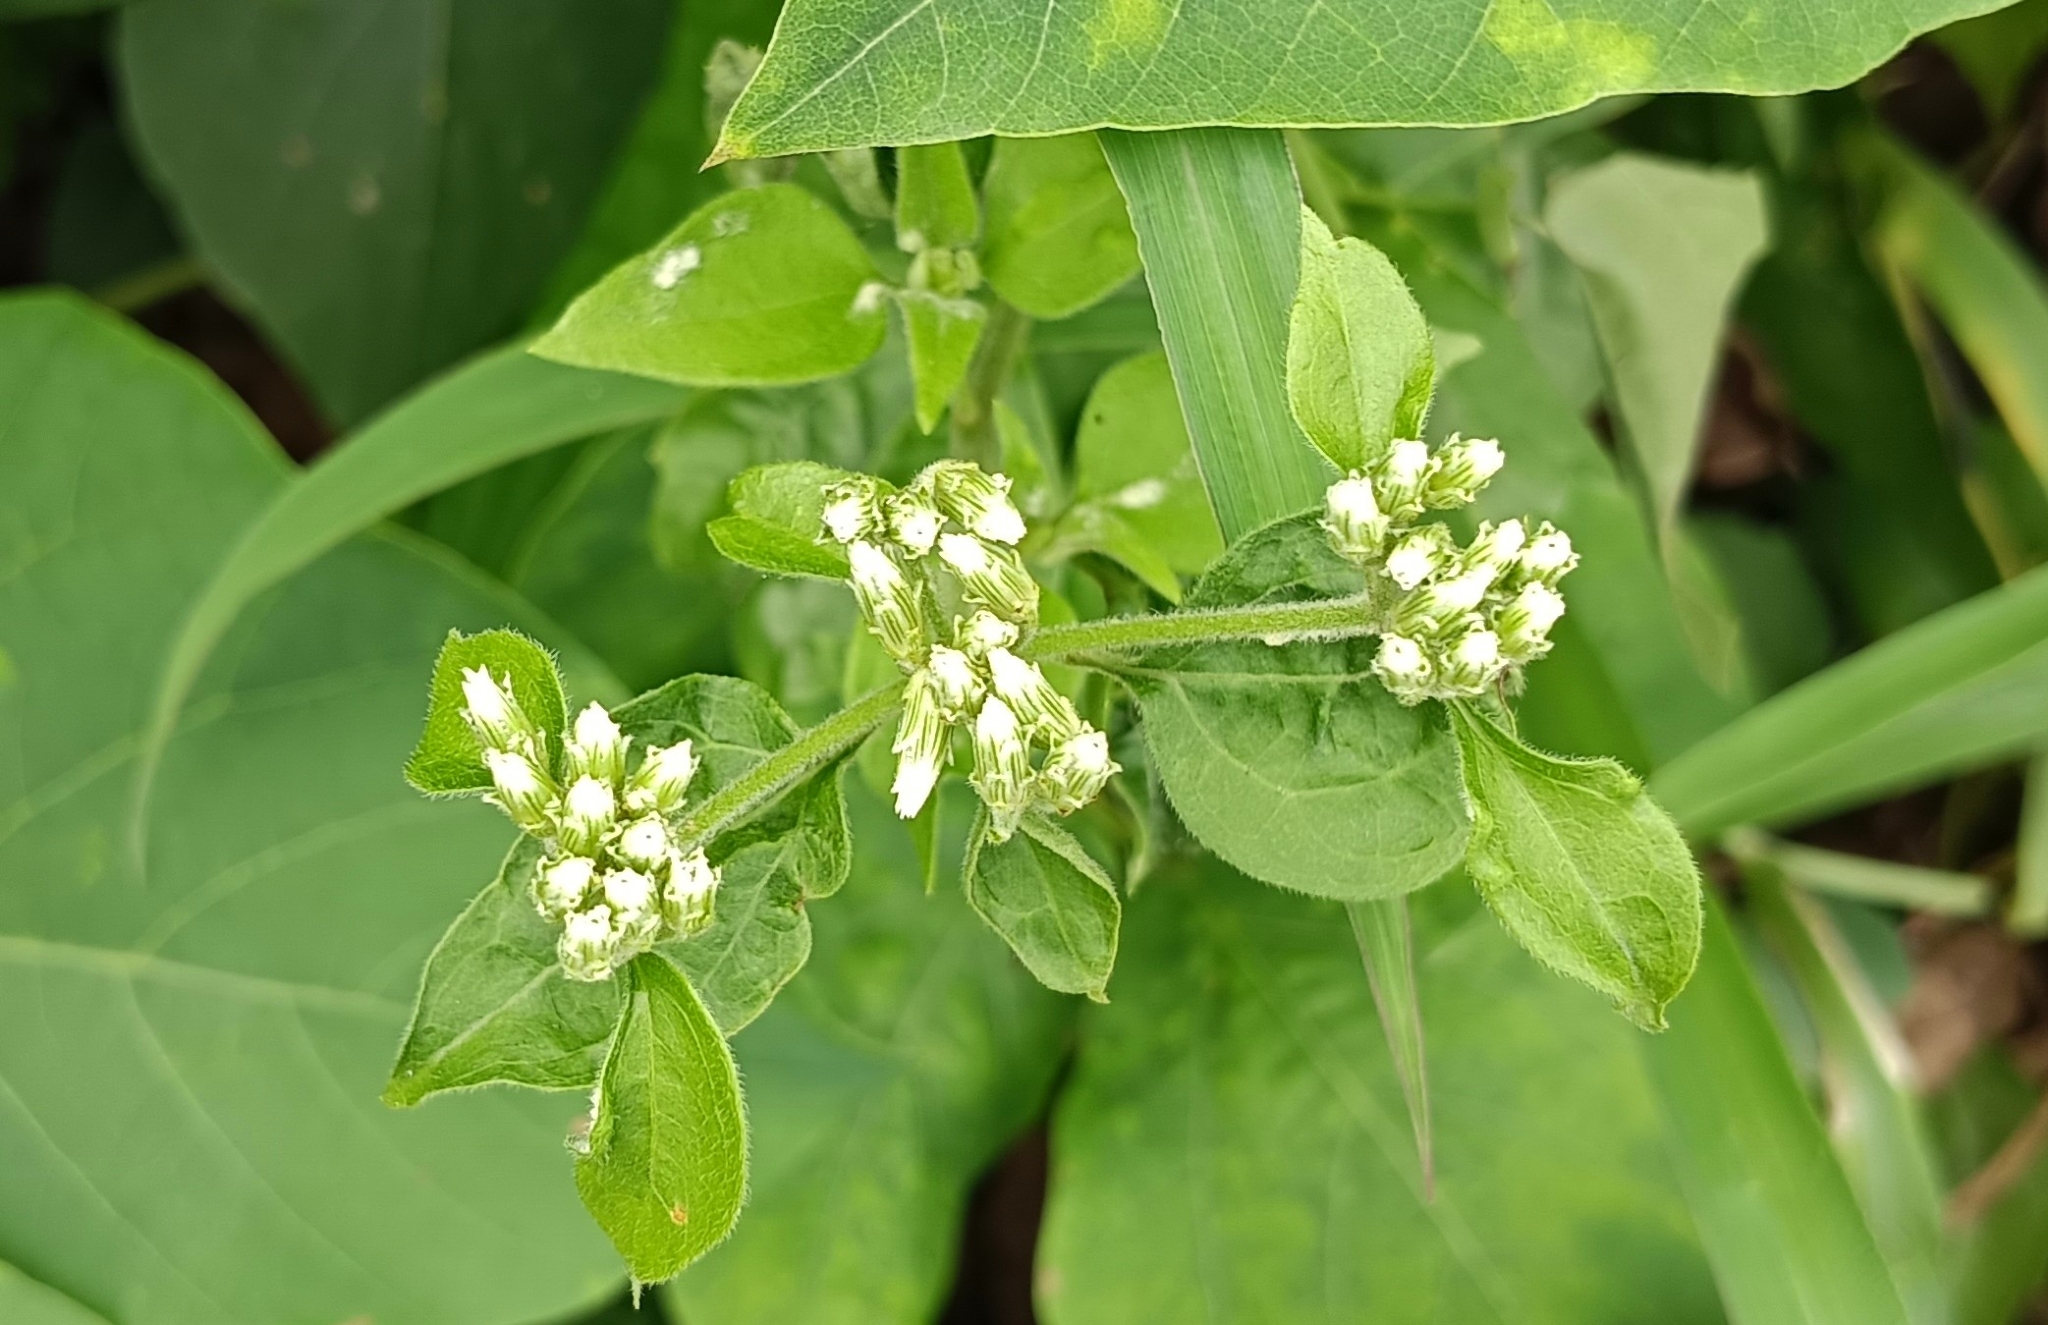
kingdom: Plantae
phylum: Tracheophyta
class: Magnoliopsida
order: Asterales
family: Asteraceae
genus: Mikania
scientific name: Mikania micrantha
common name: Mile-a-minute
